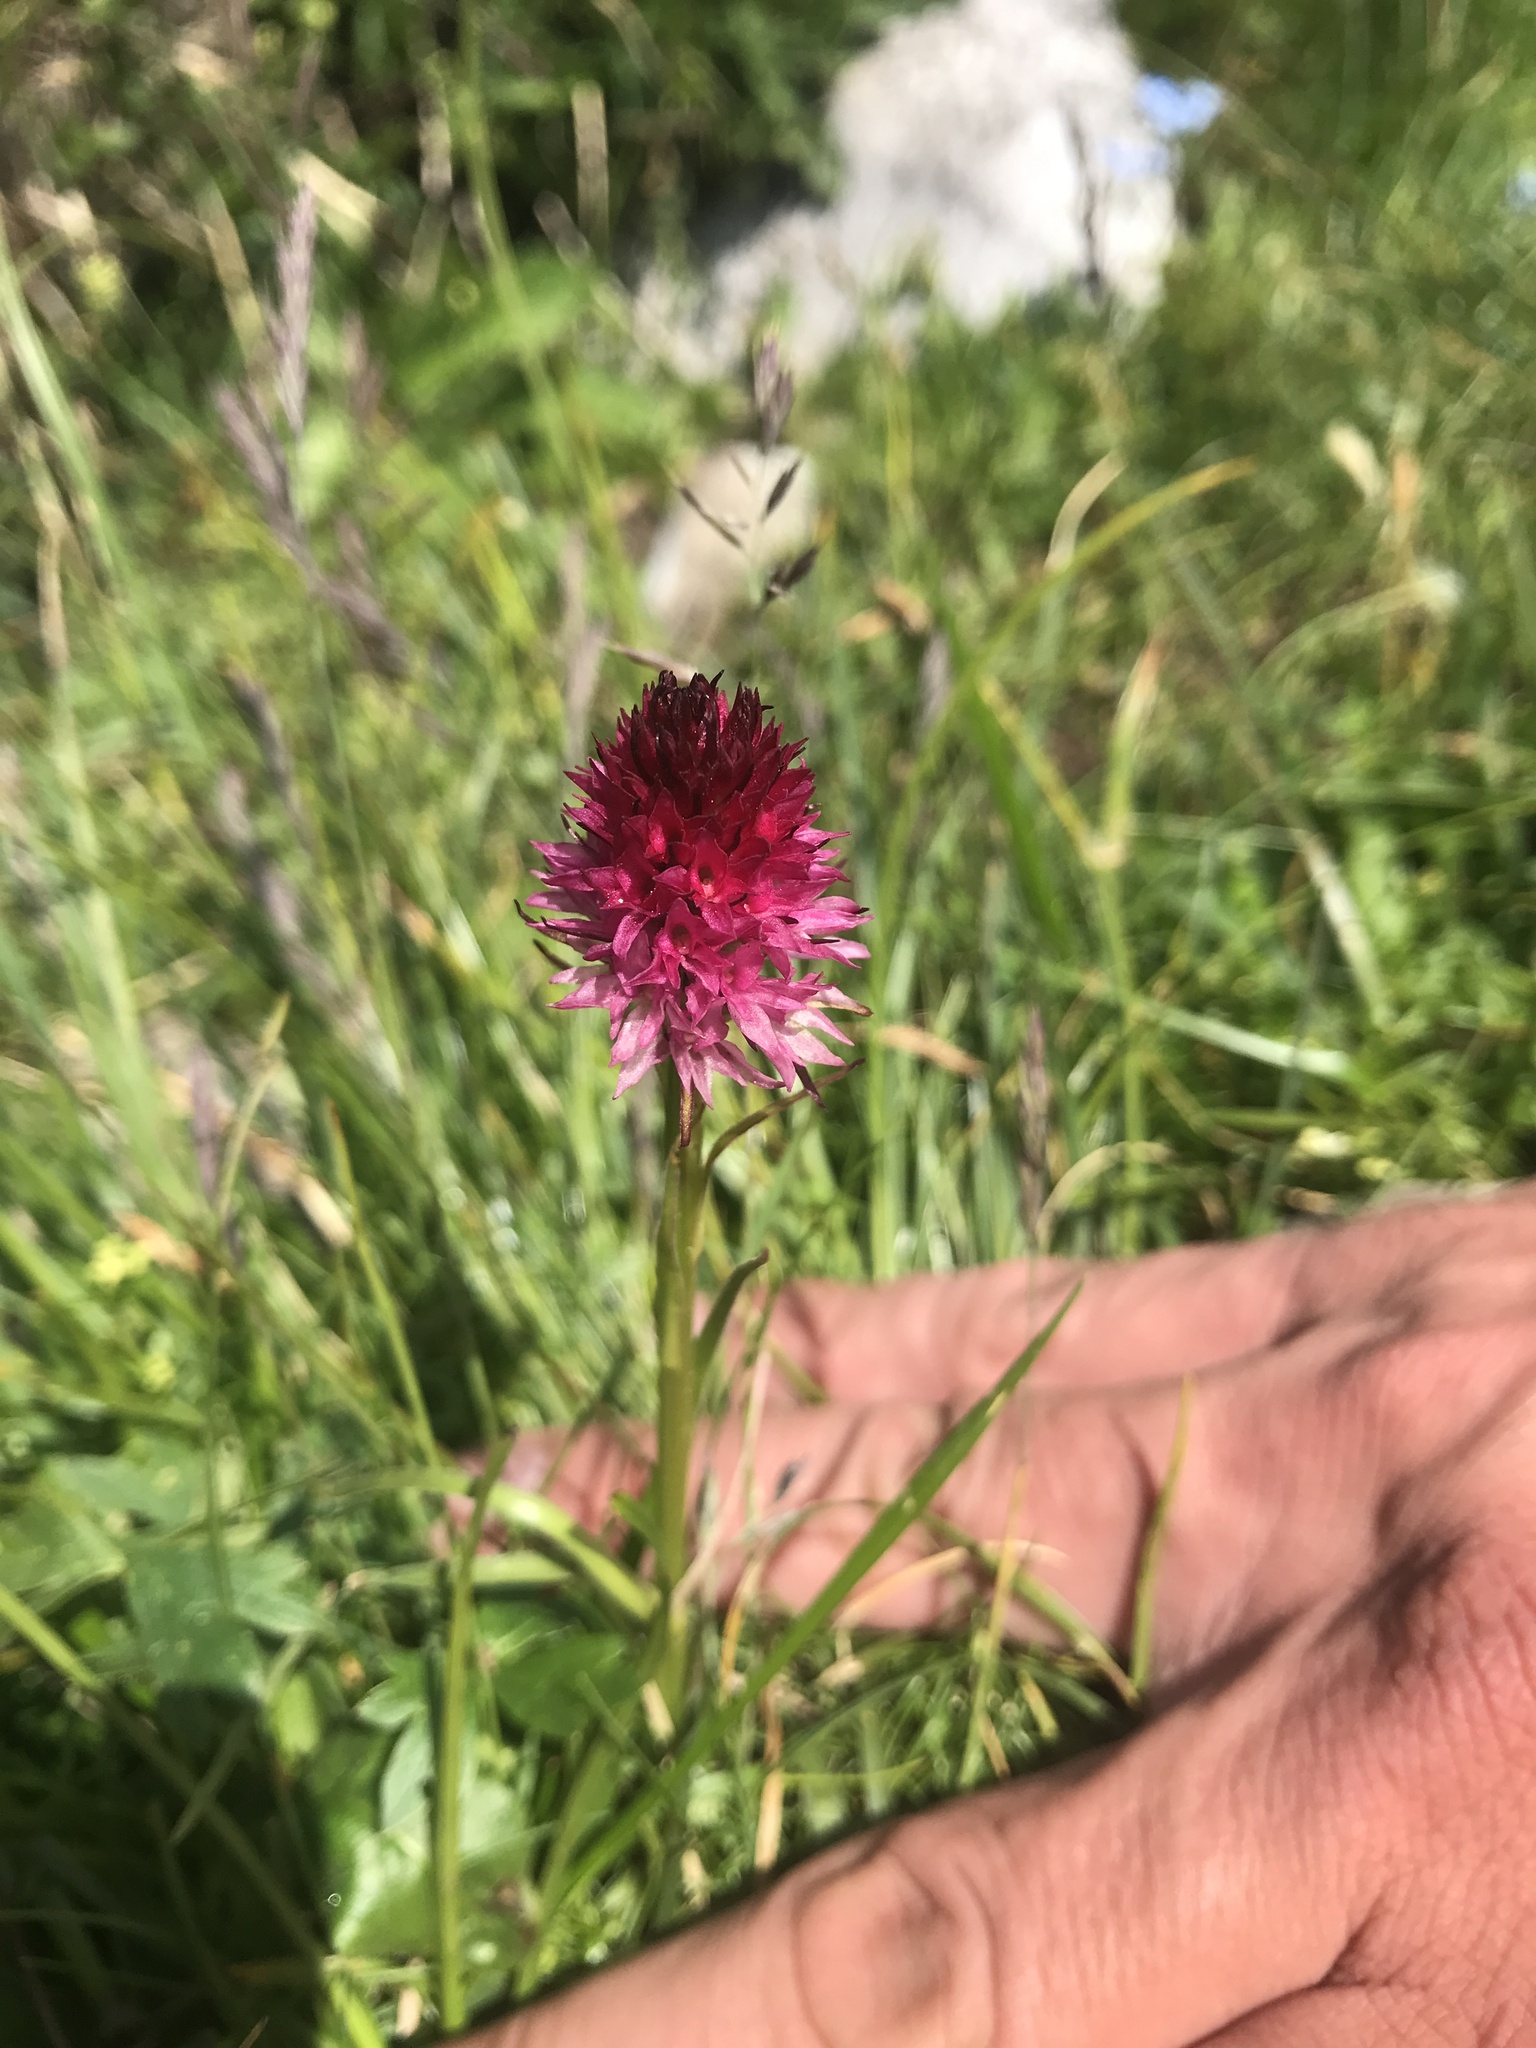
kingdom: Plantae
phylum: Tracheophyta
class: Liliopsida
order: Asparagales
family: Orchidaceae
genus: Gymnadenia
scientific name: Gymnadenia bicolor
